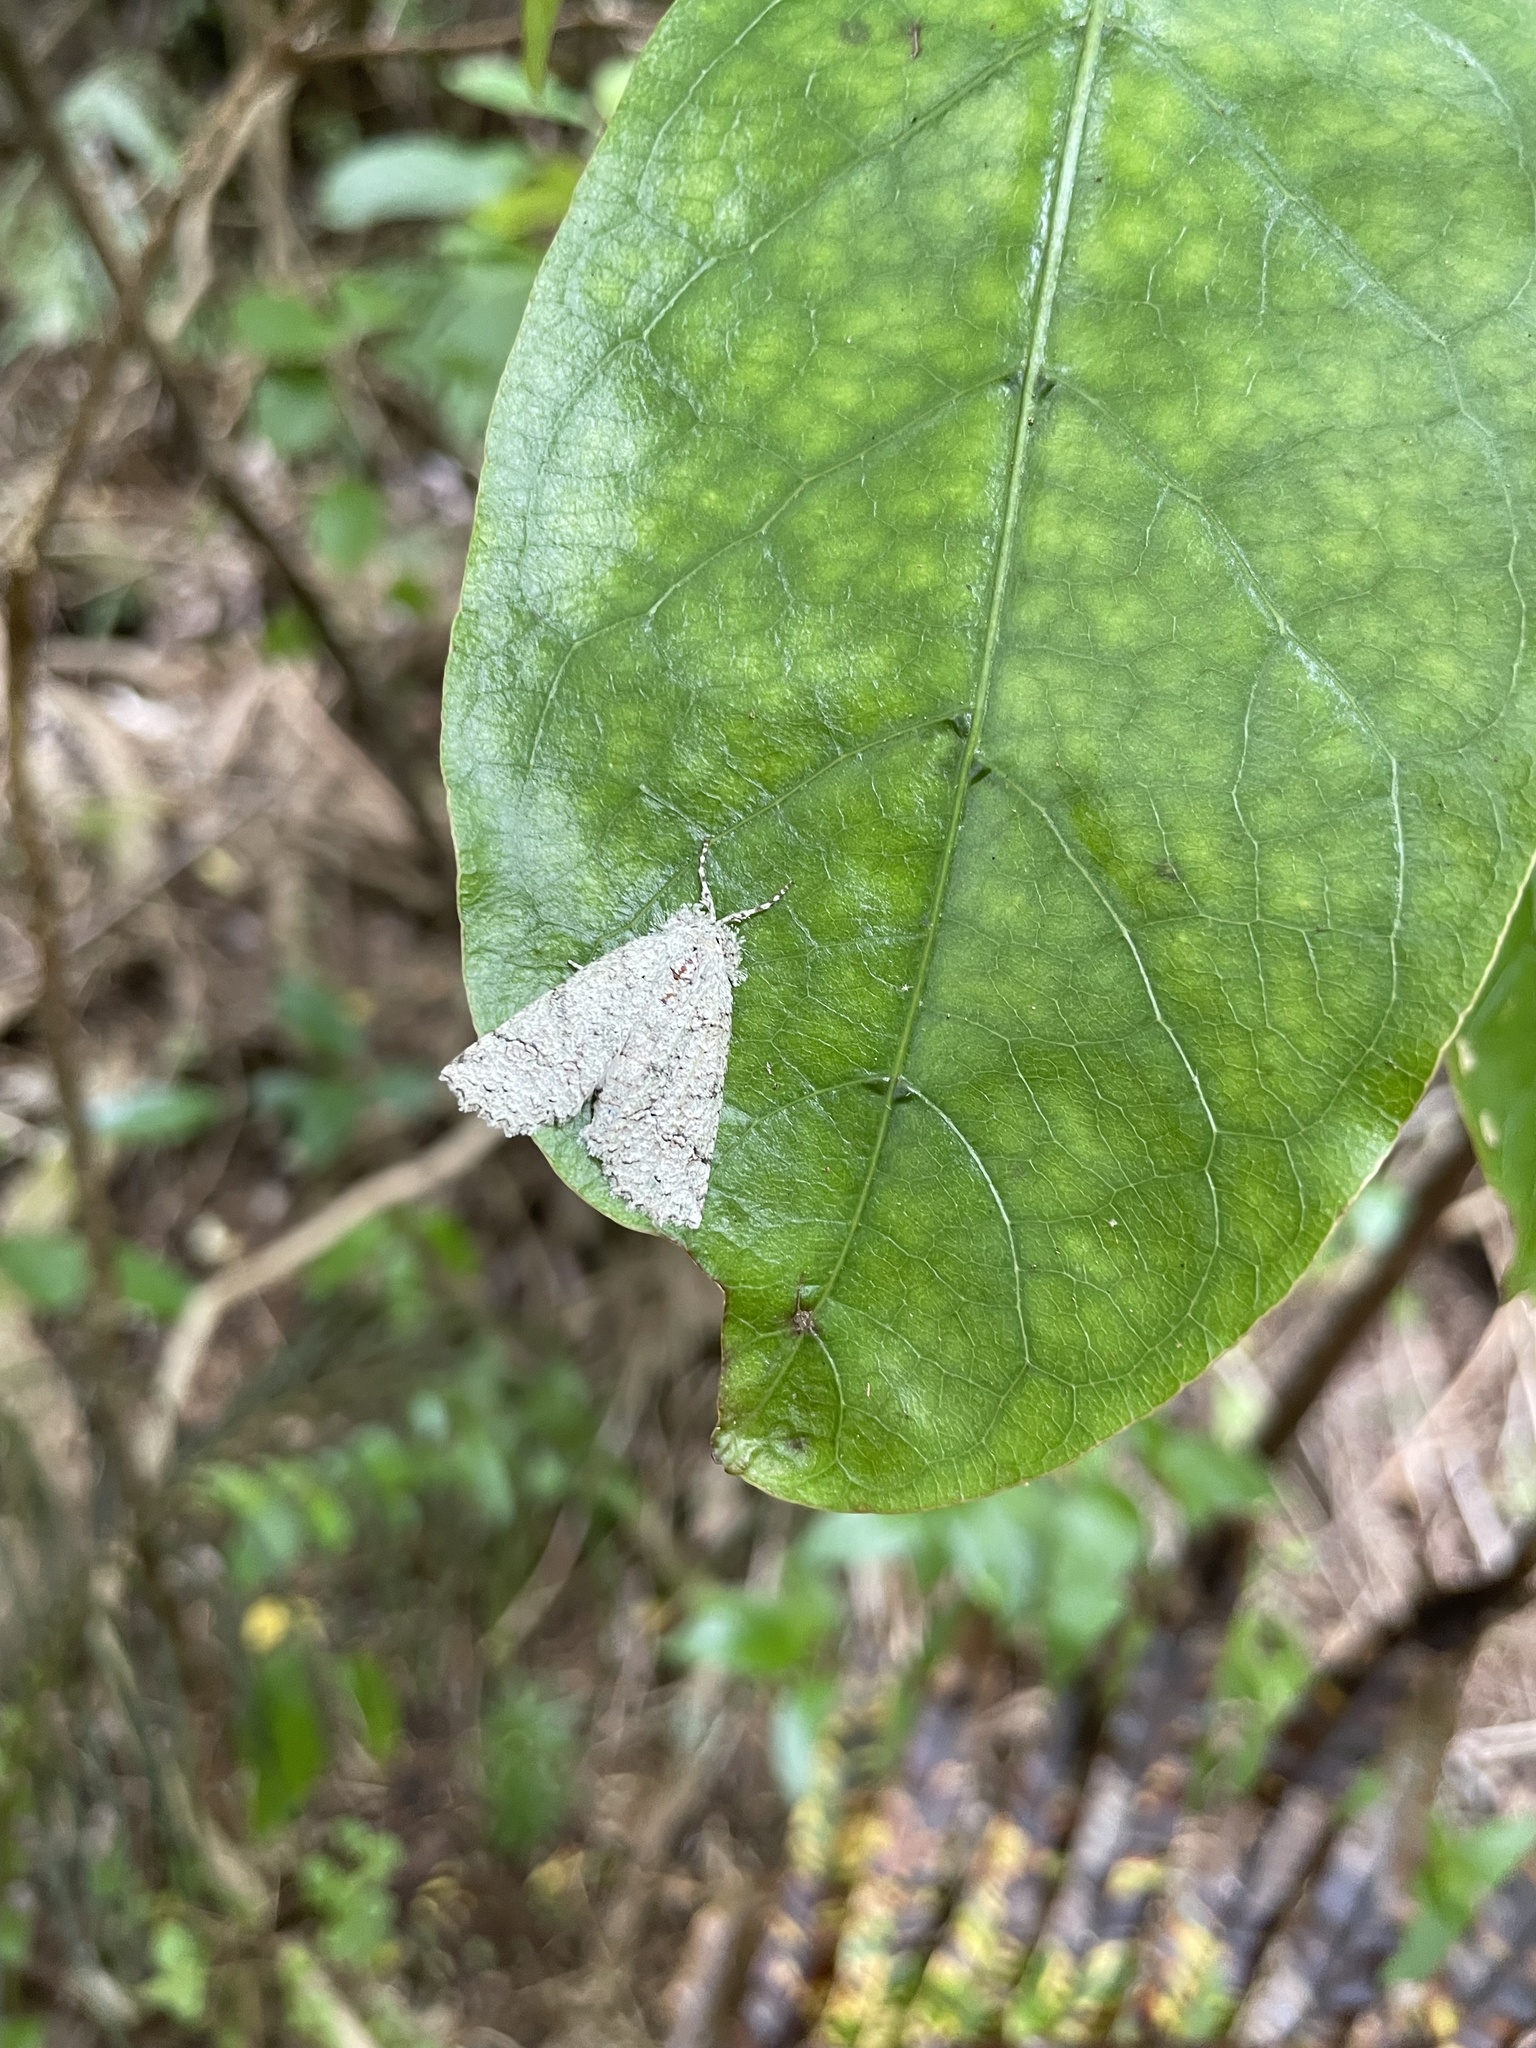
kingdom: Animalia
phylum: Arthropoda
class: Insecta
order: Lepidoptera
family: Geometridae
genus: Declana
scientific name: Declana floccosa
